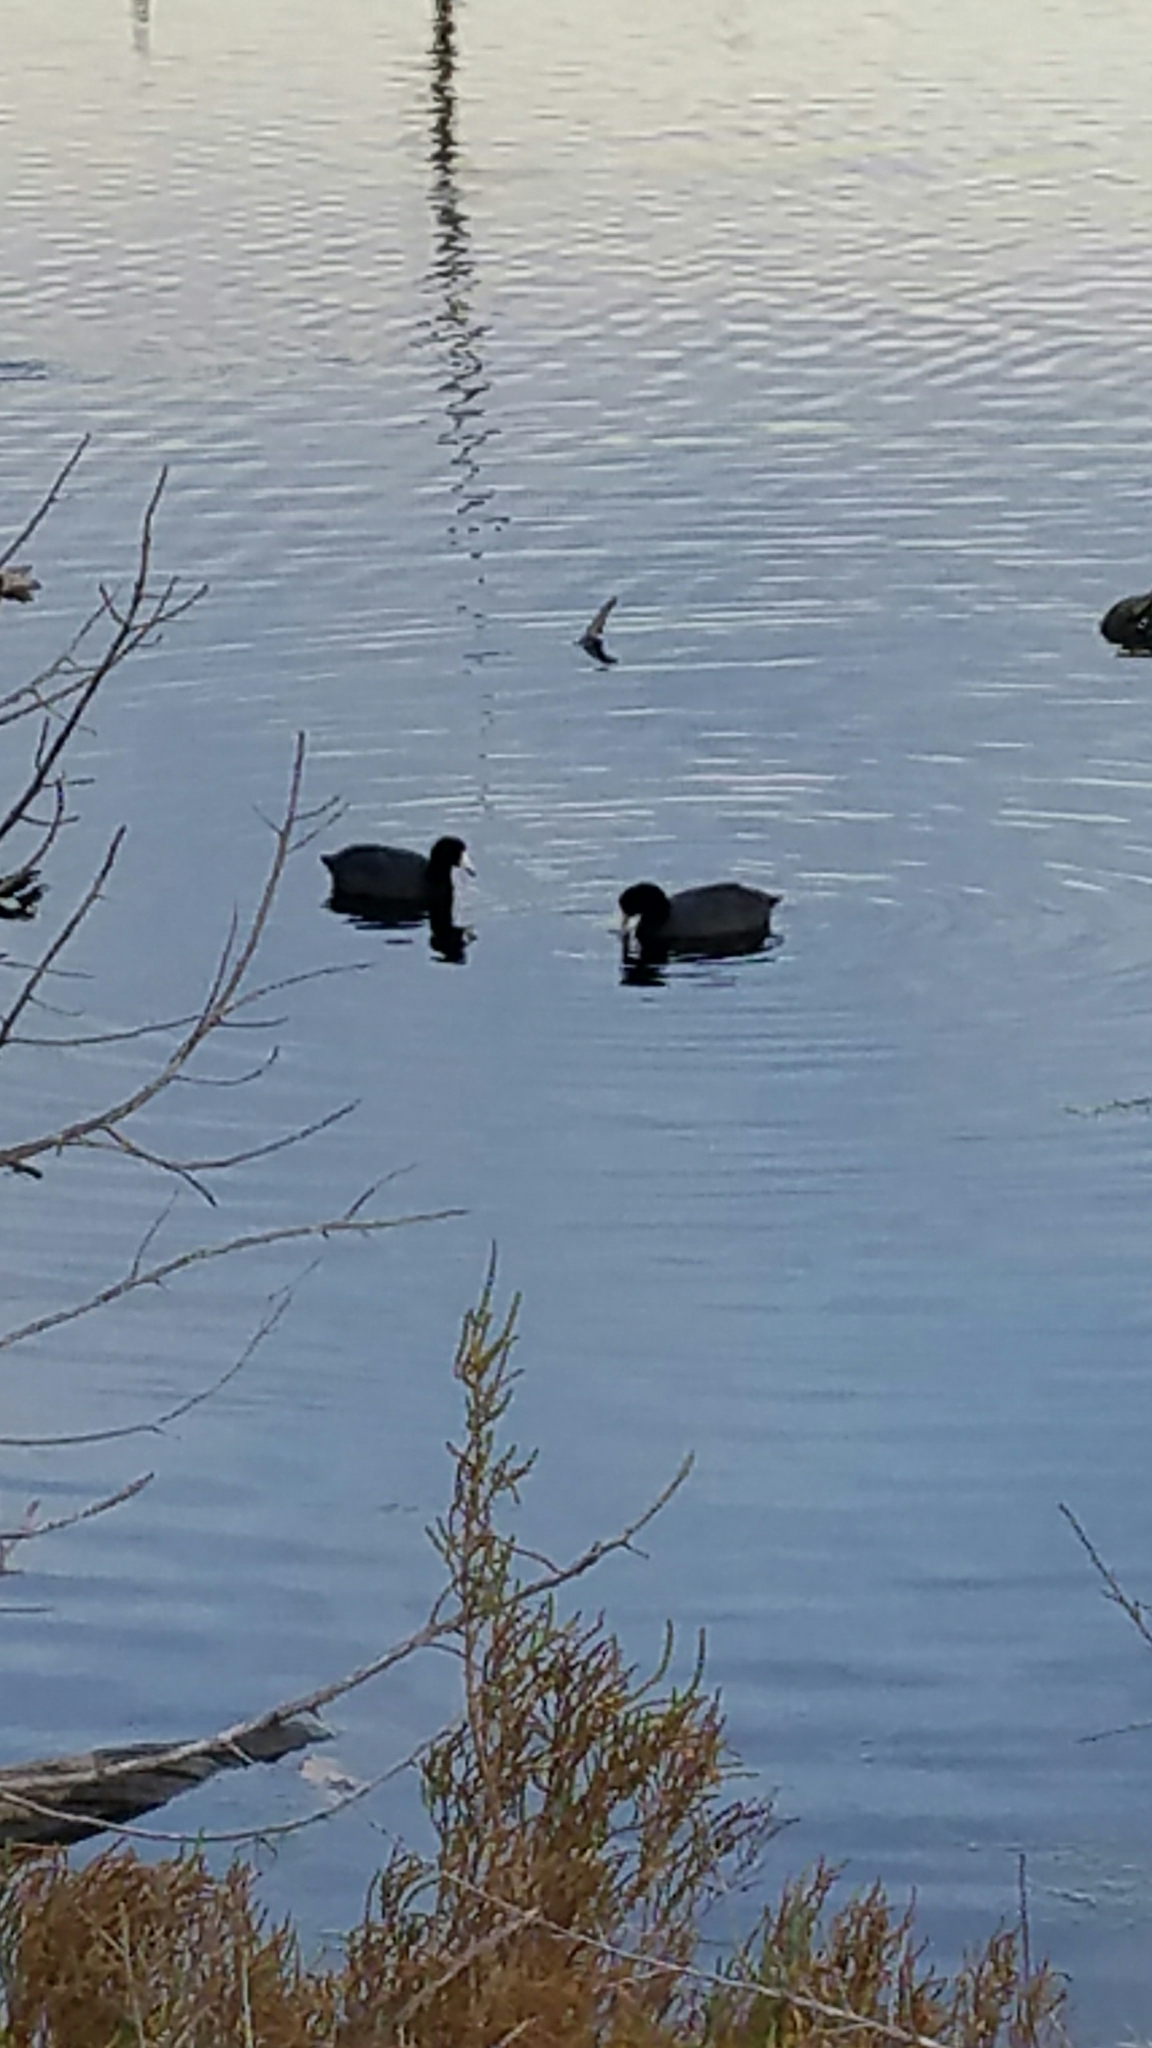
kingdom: Animalia
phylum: Chordata
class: Aves
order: Gruiformes
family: Rallidae
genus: Fulica
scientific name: Fulica americana
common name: American coot
